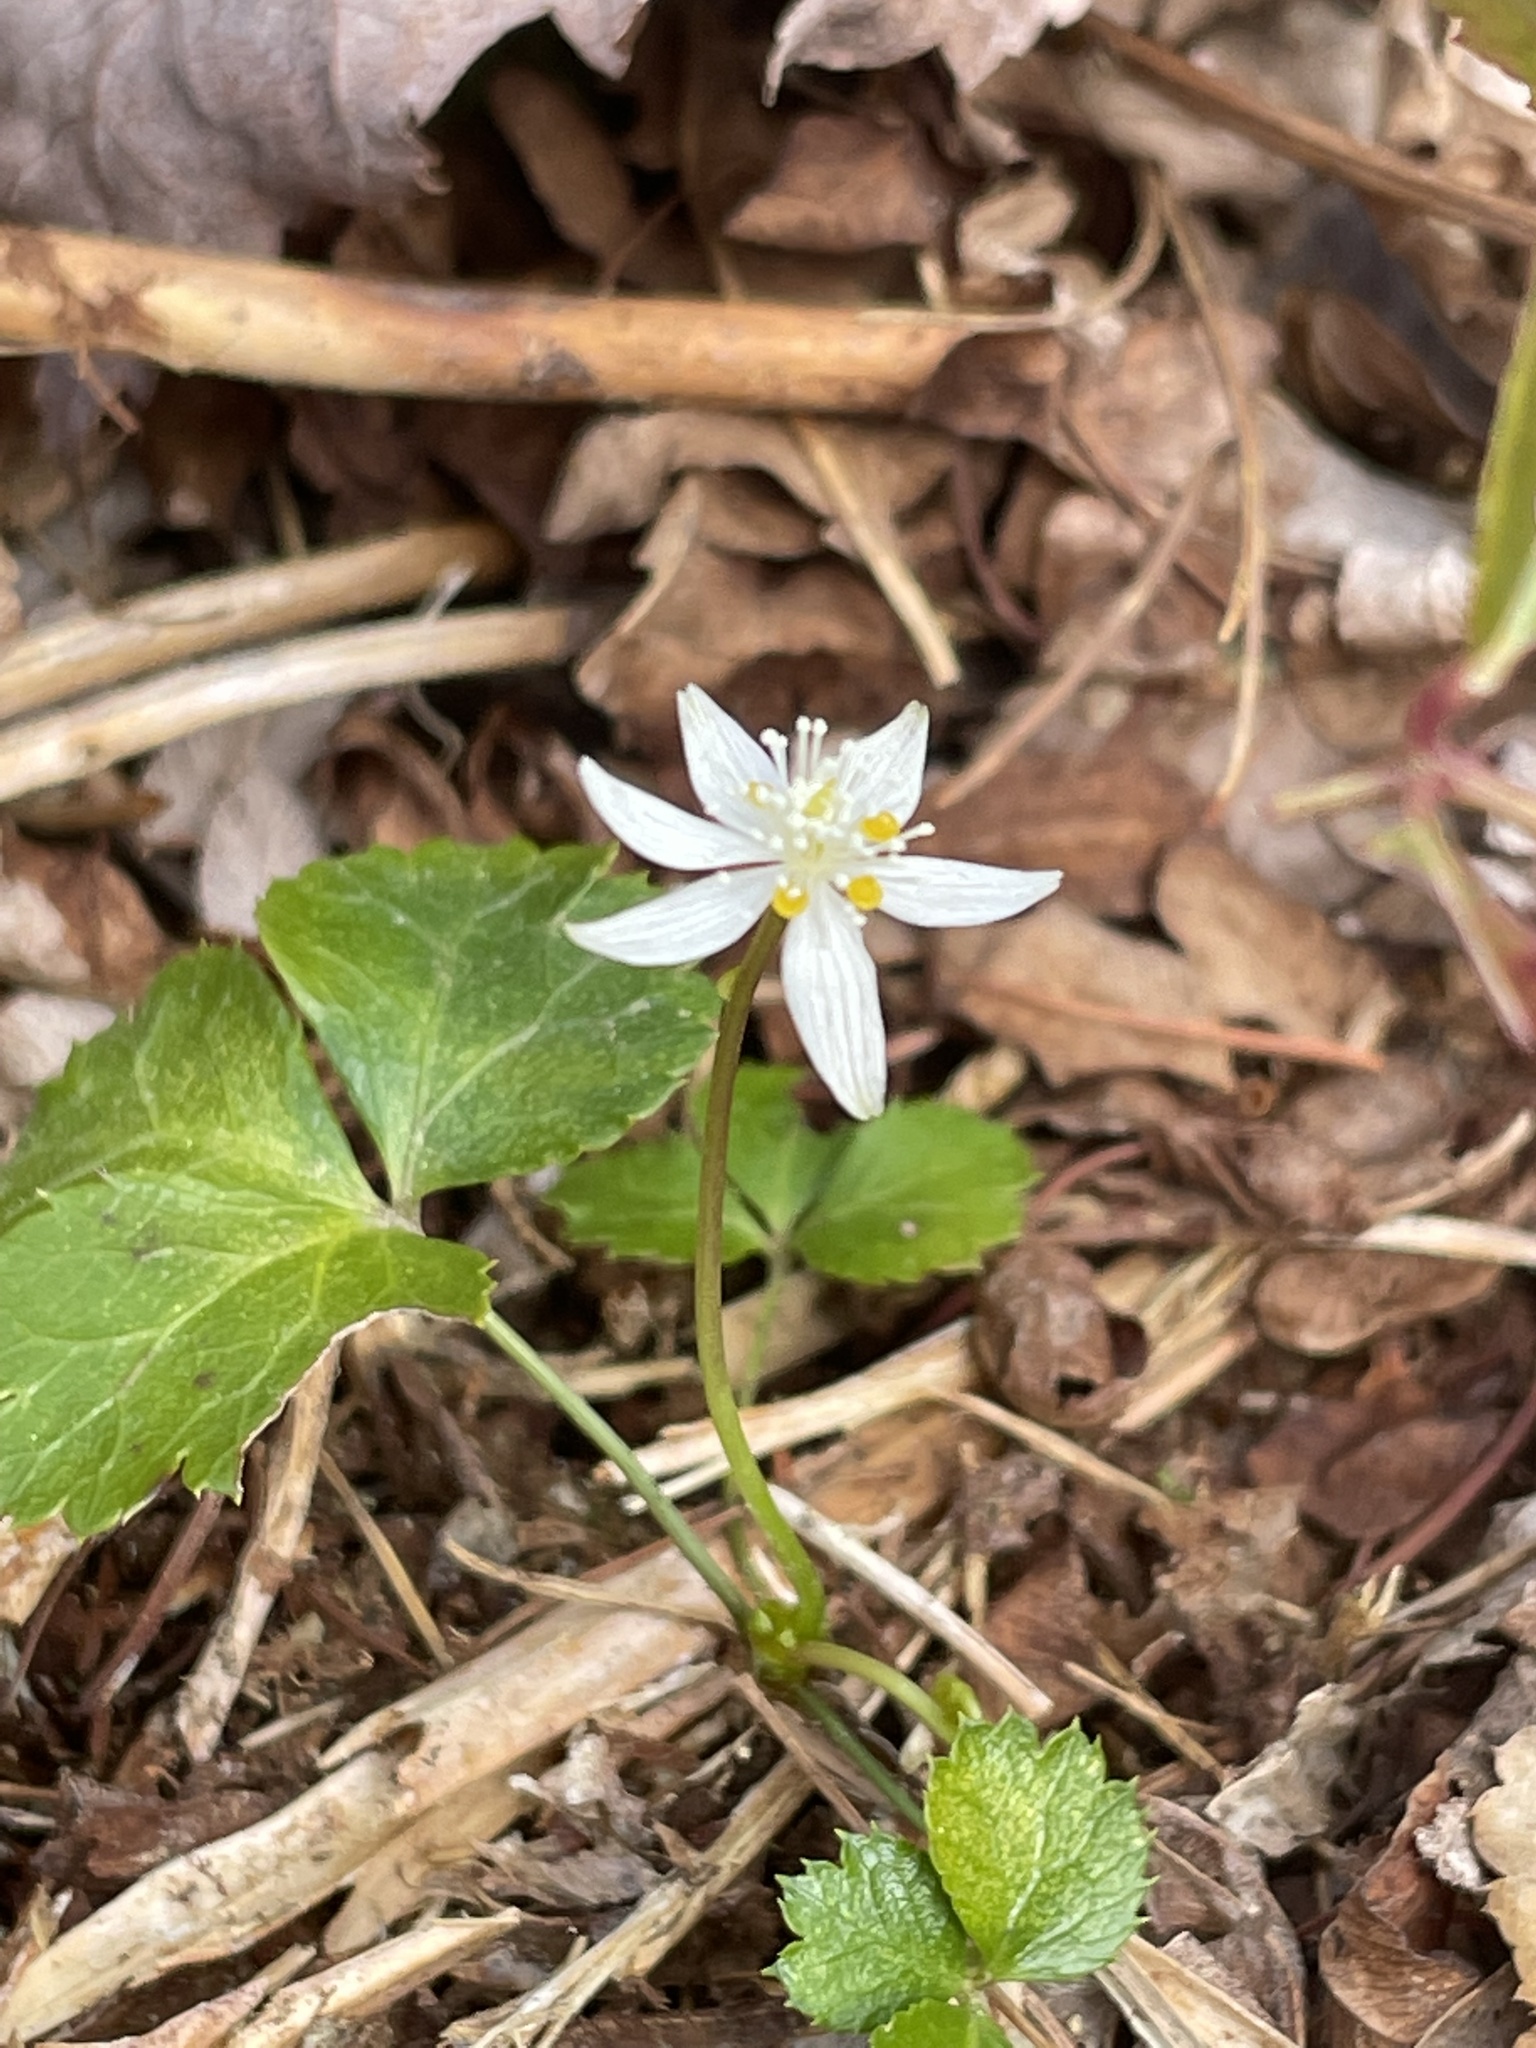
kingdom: Plantae
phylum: Tracheophyta
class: Magnoliopsida
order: Ranunculales
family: Ranunculaceae
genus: Coptis
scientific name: Coptis trifolia
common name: Canker-root
